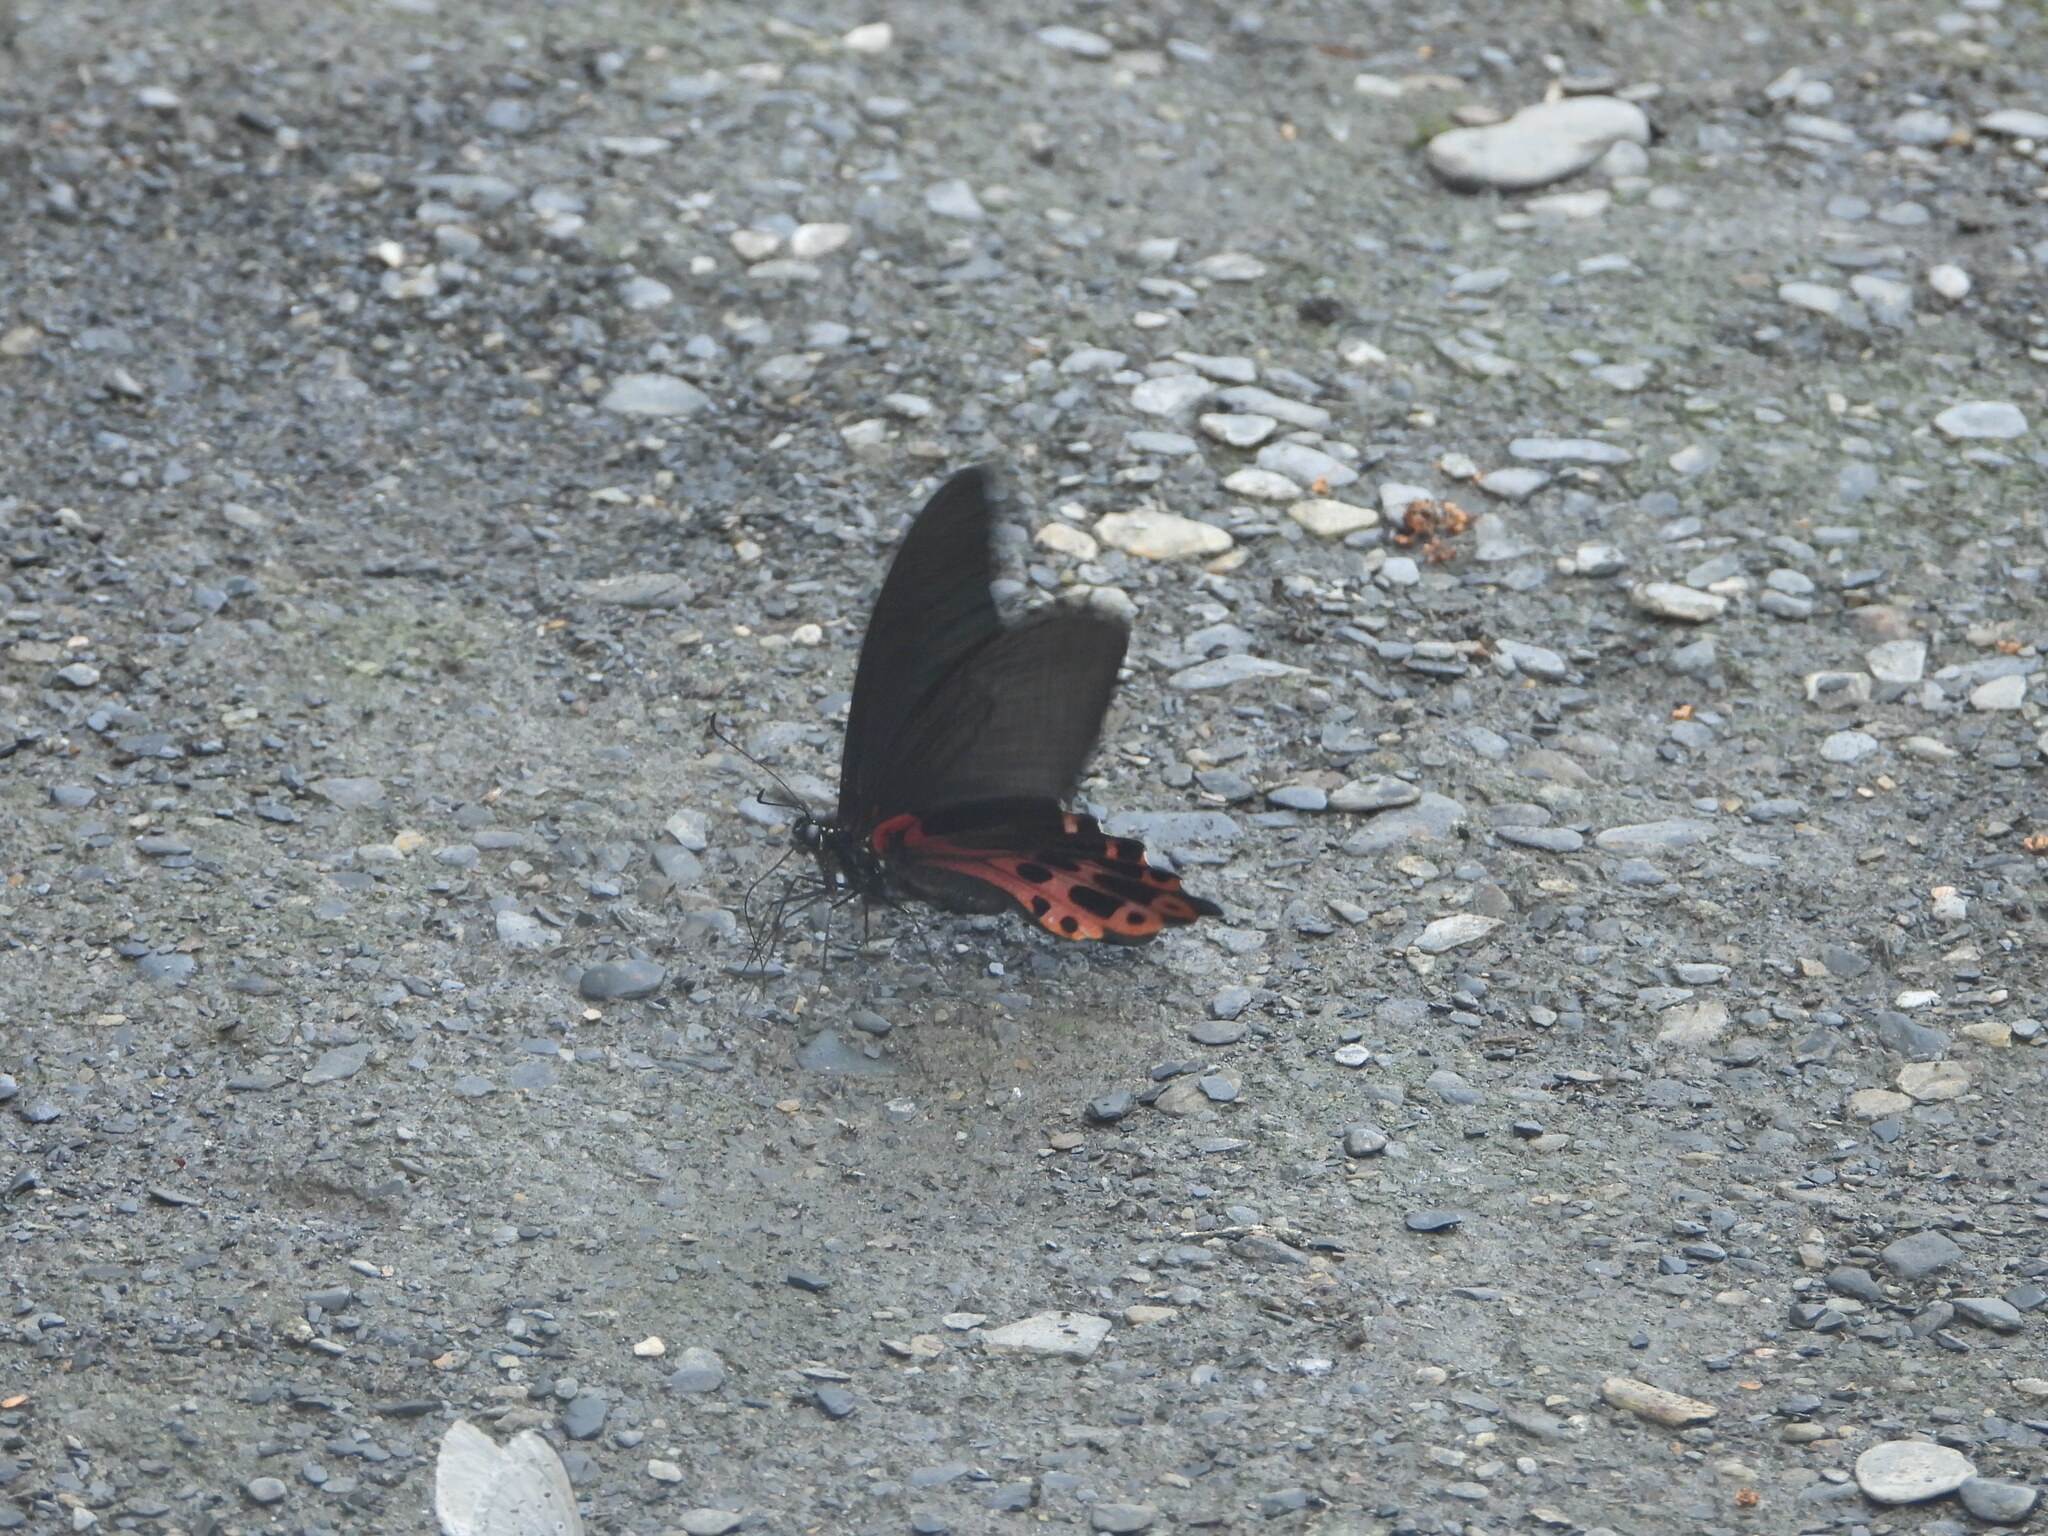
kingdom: Animalia
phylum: Arthropoda
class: Insecta
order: Lepidoptera
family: Papilionidae
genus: Papilio
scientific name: Papilio thaiwanus
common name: Formosan swallowtail
